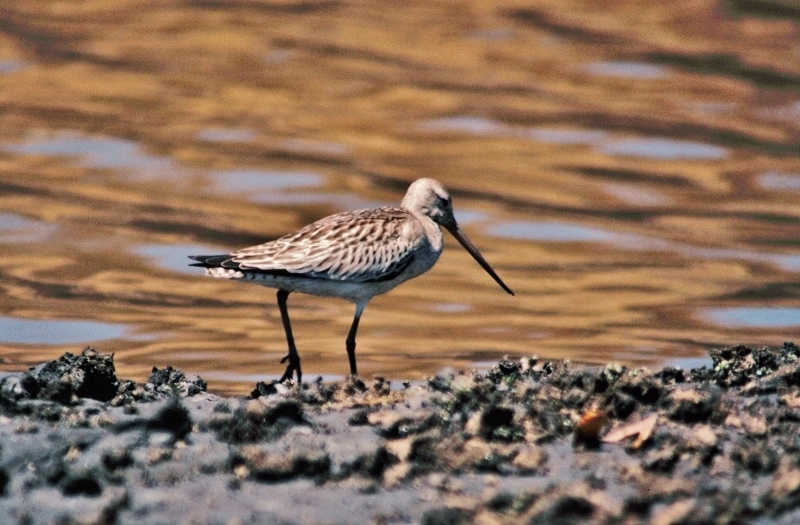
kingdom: Animalia
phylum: Chordata
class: Aves
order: Charadriiformes
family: Scolopacidae
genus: Limosa
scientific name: Limosa lapponica
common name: Bar-tailed godwit
